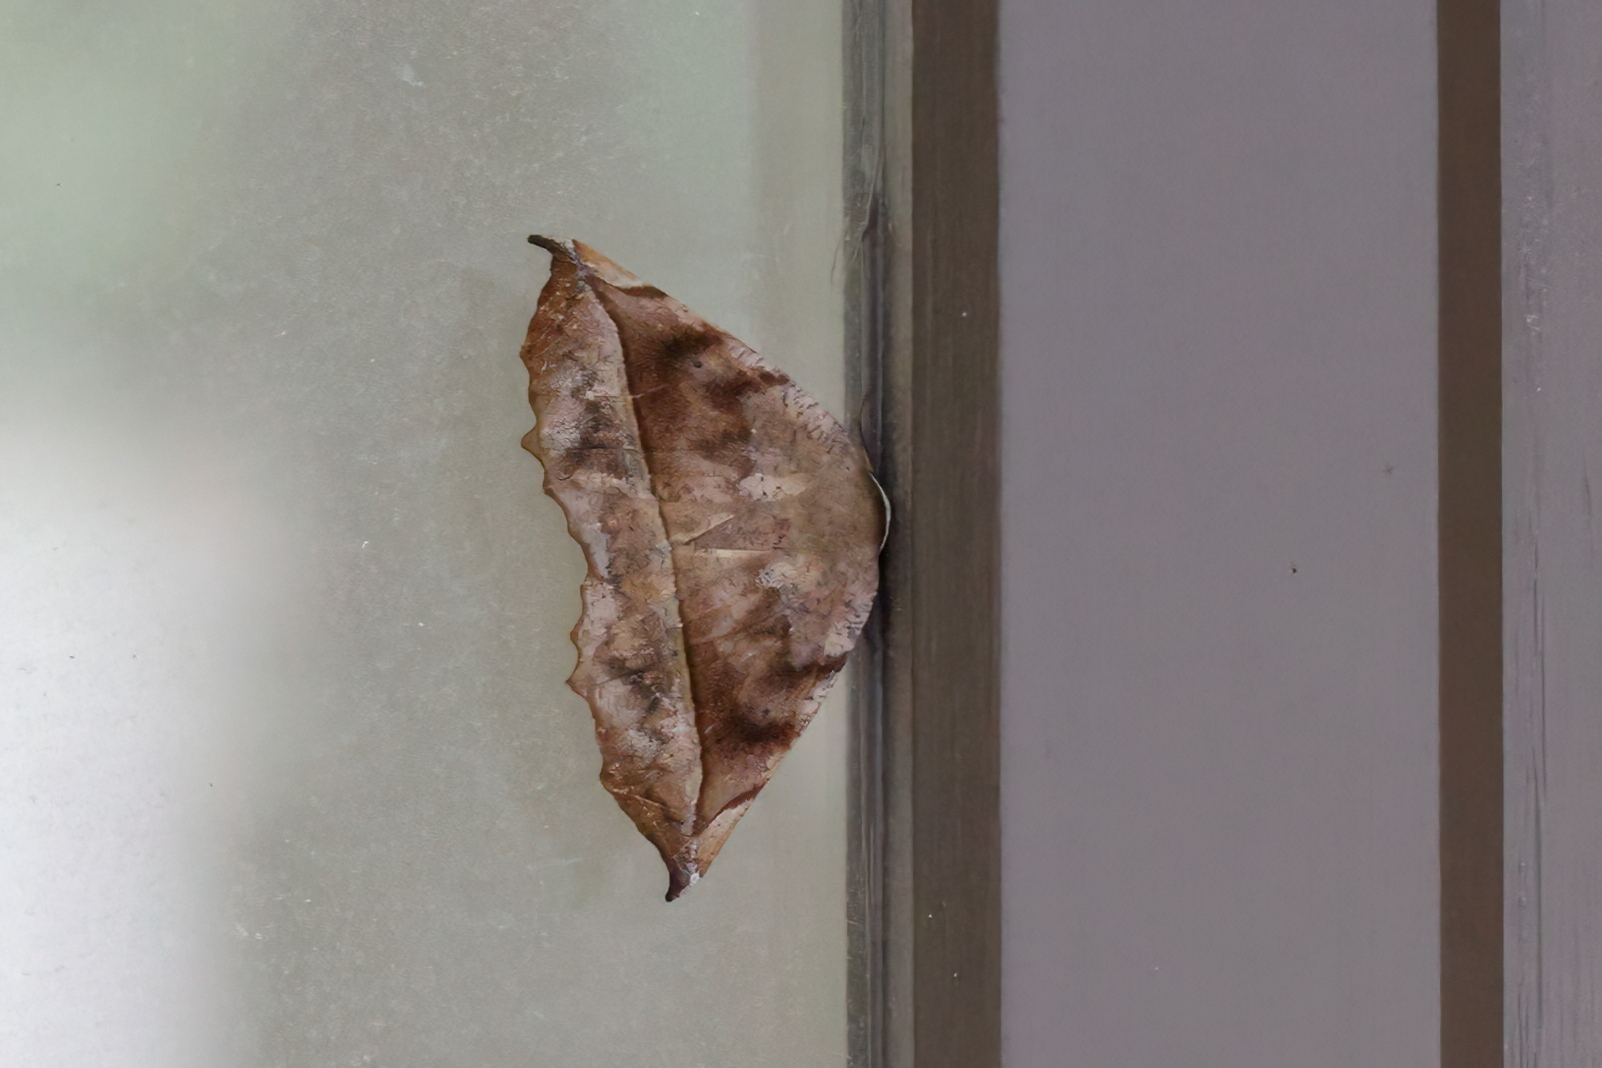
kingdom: Animalia
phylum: Arthropoda
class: Insecta
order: Lepidoptera
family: Geometridae
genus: Eutrapela
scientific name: Eutrapela clemataria
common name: Curved-toothed geometer
